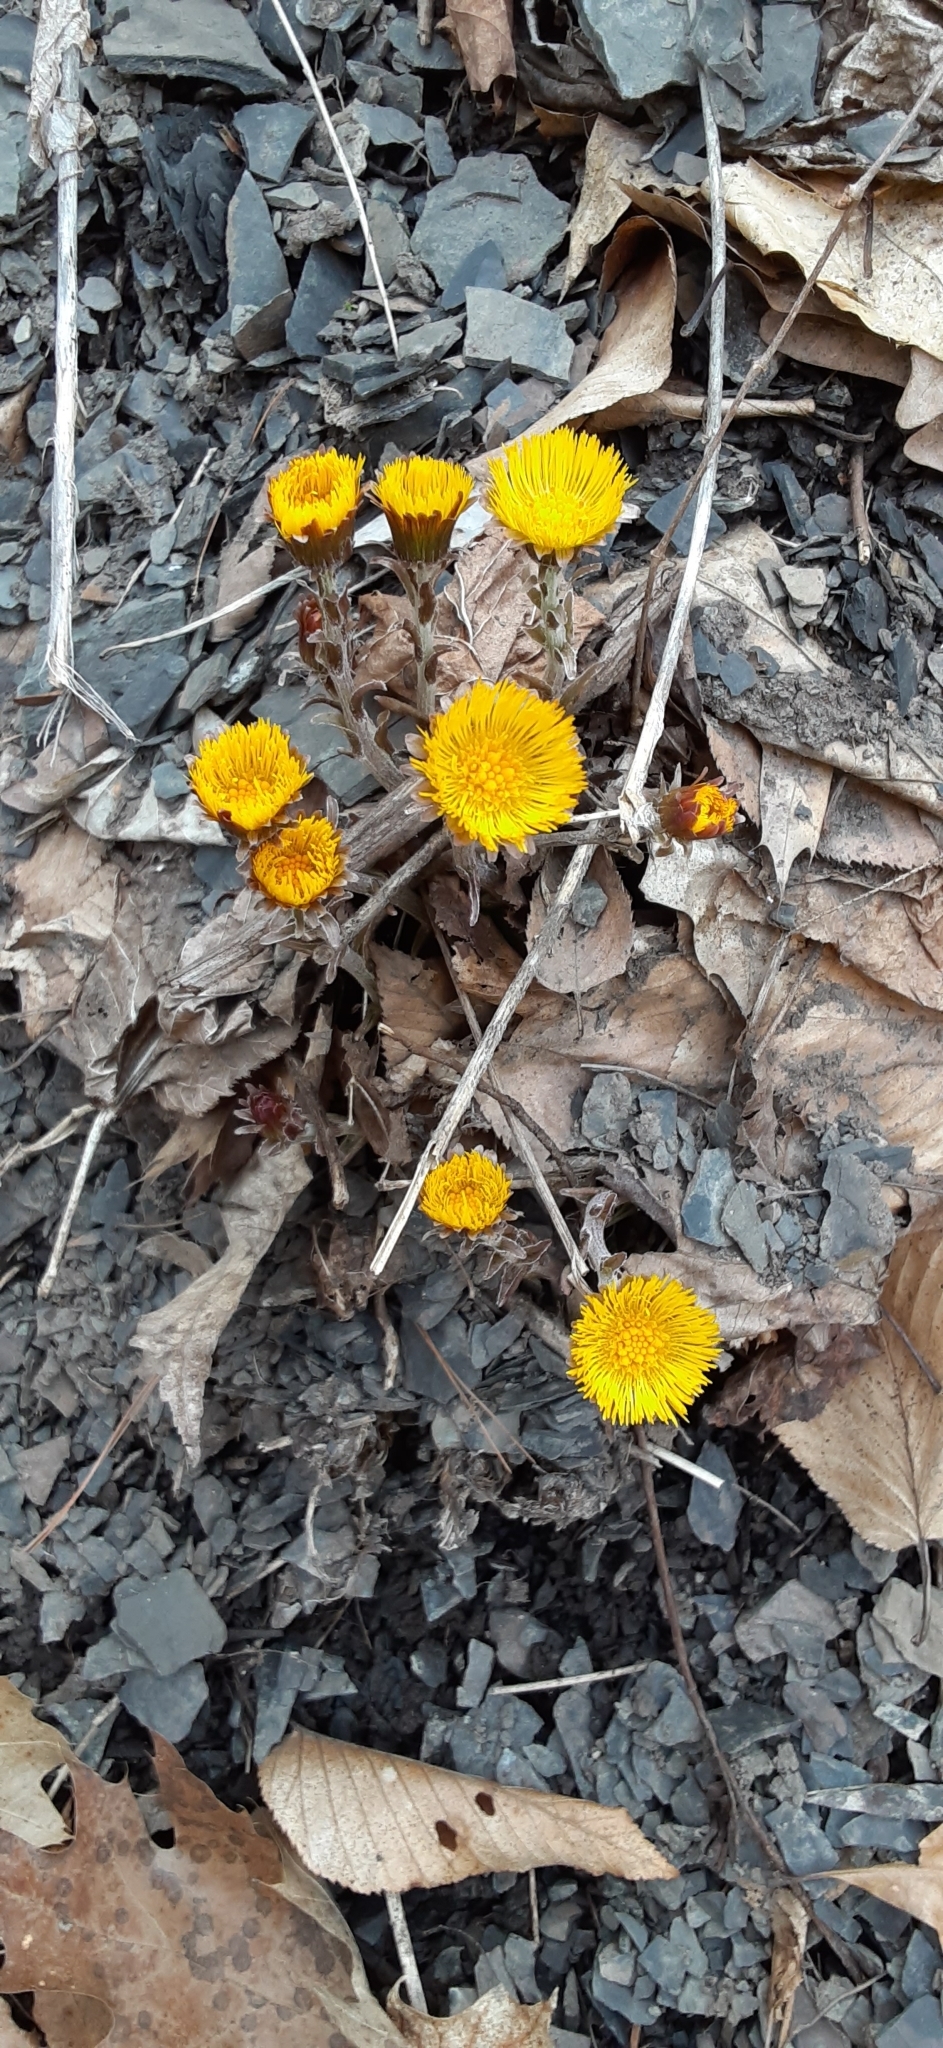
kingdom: Plantae
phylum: Tracheophyta
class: Magnoliopsida
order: Asterales
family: Asteraceae
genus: Tussilago
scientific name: Tussilago farfara
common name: Coltsfoot
